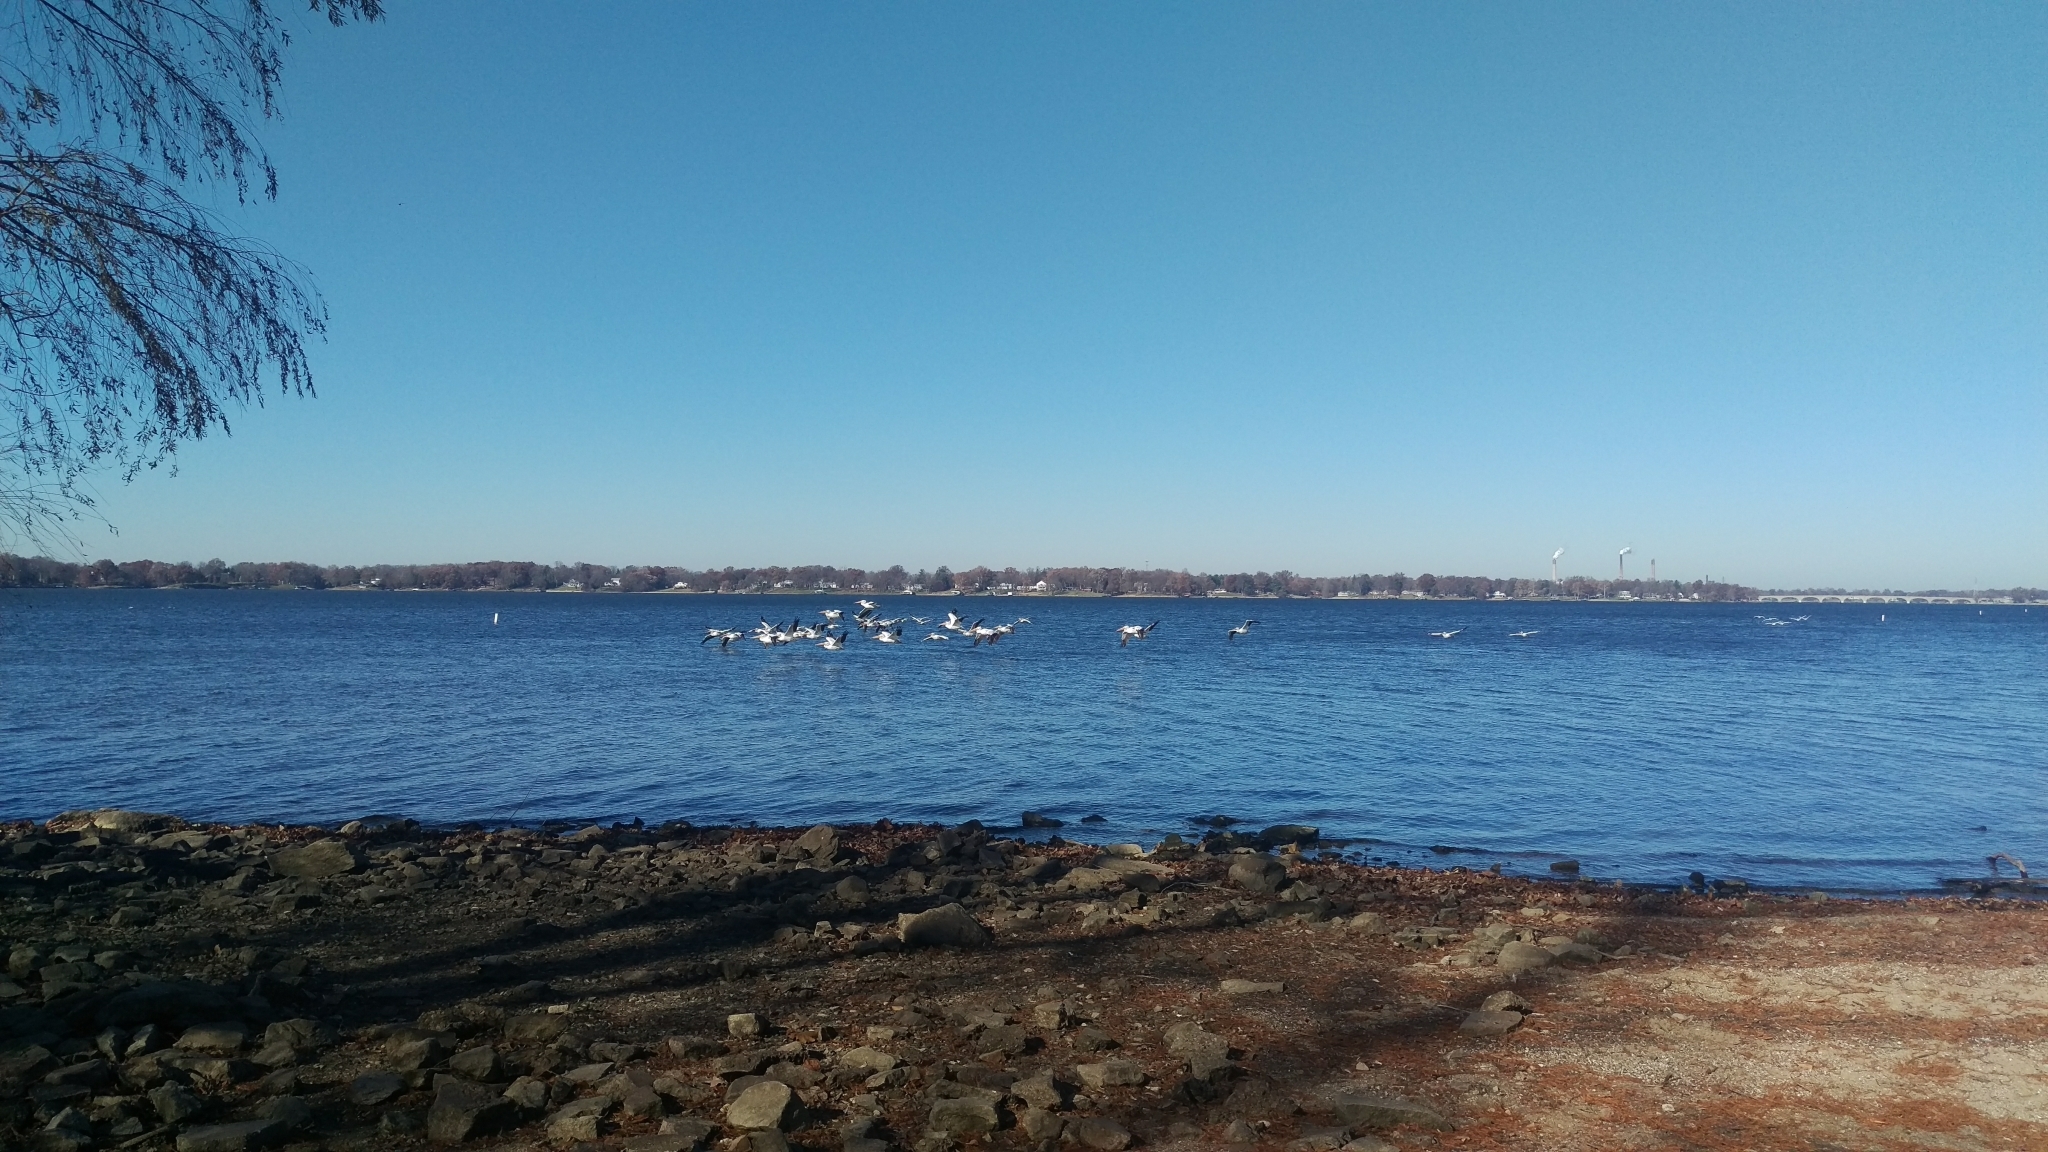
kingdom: Animalia
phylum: Chordata
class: Aves
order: Pelecaniformes
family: Pelecanidae
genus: Pelecanus
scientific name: Pelecanus erythrorhynchos
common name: American white pelican
